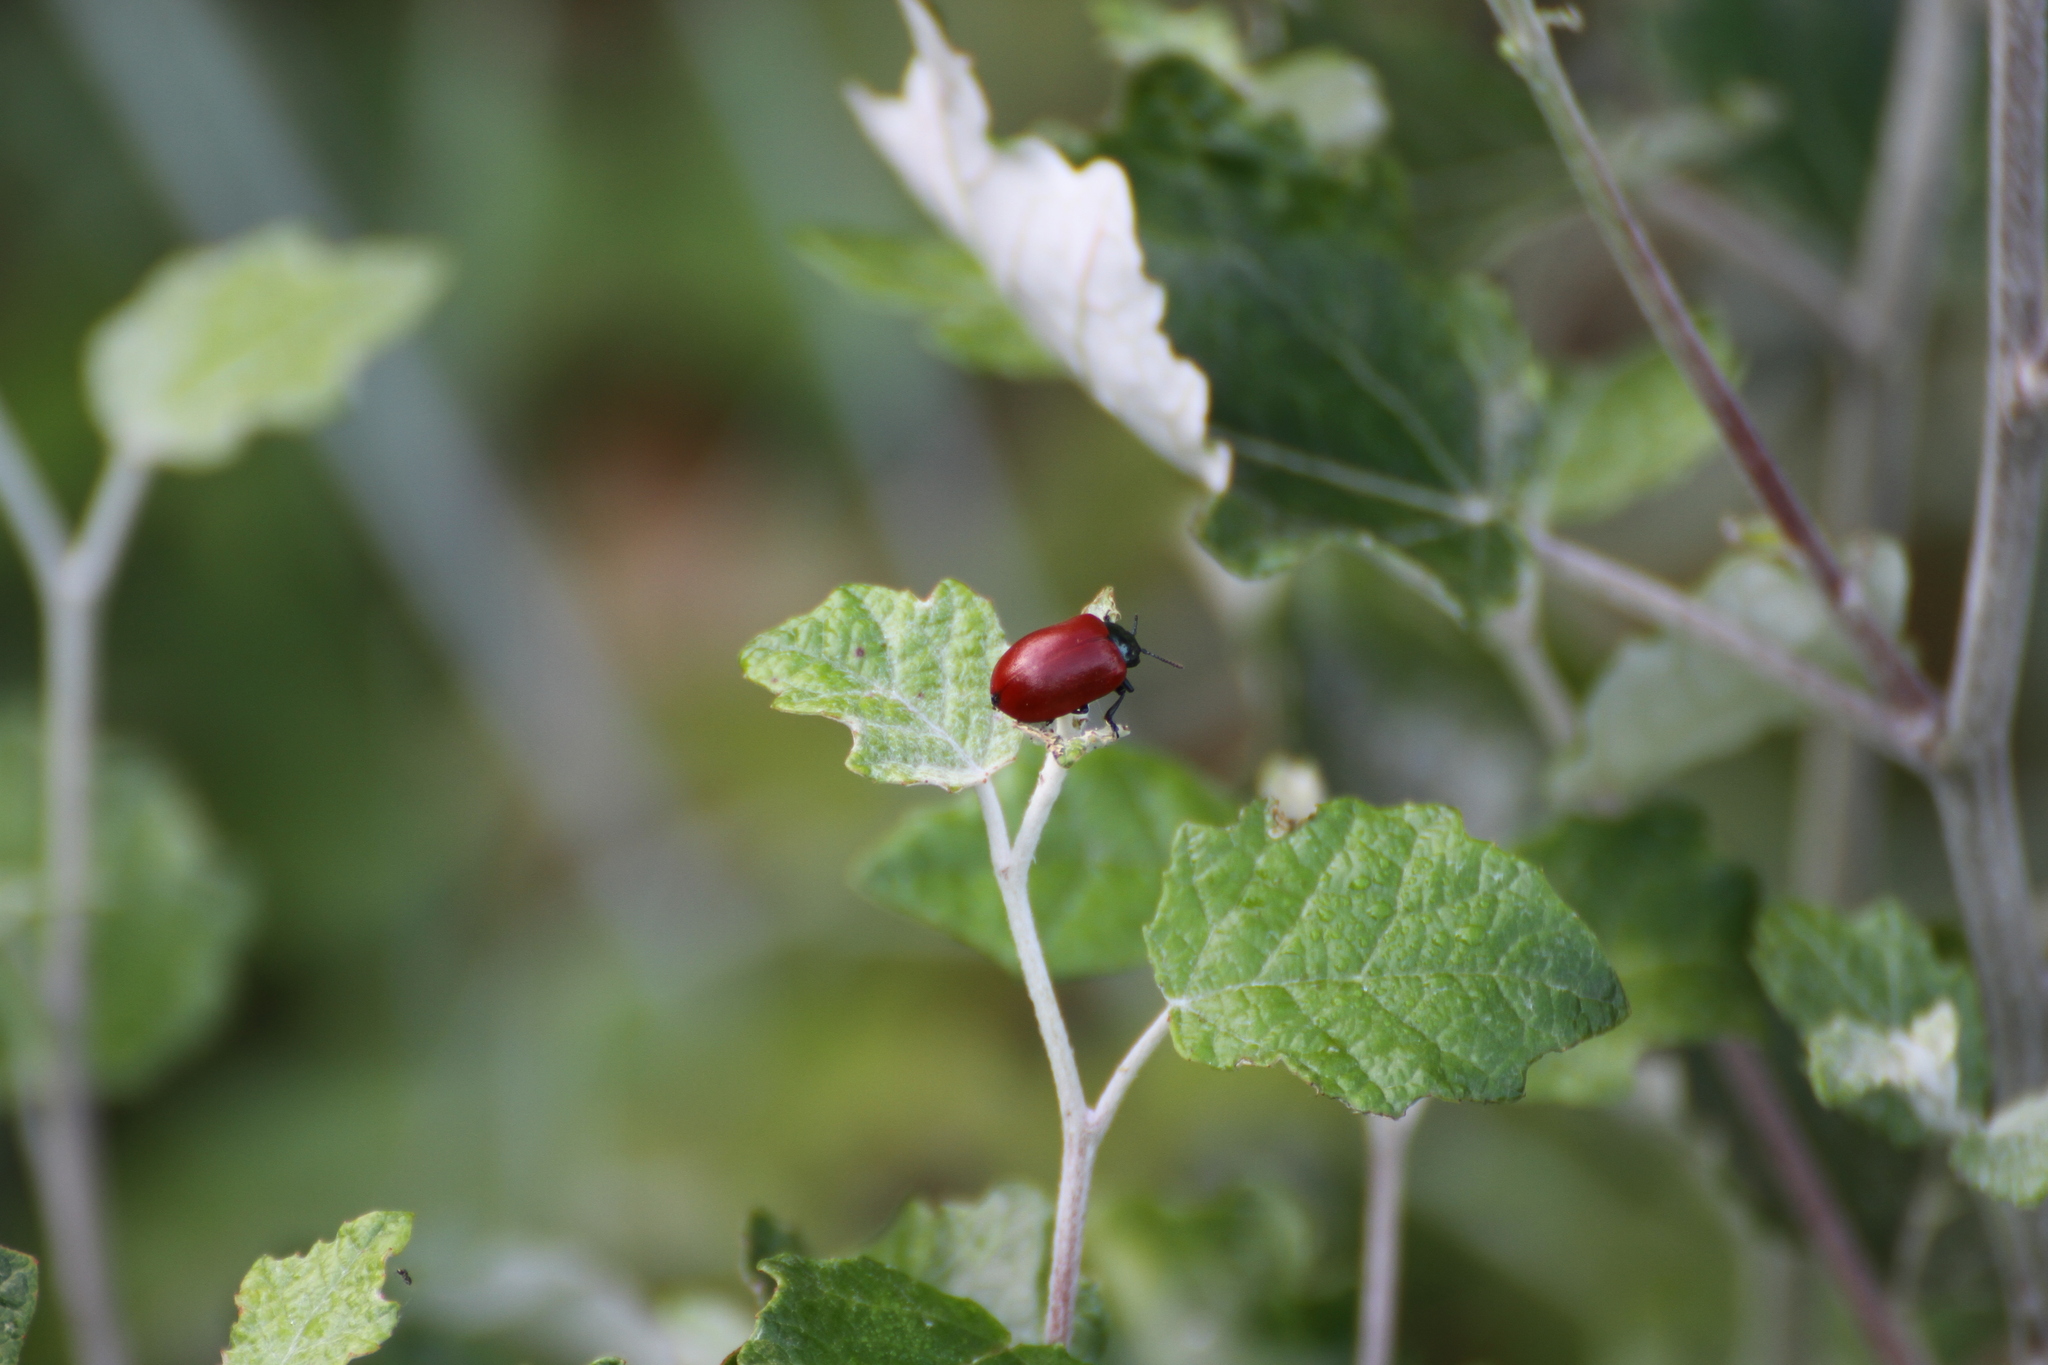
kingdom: Animalia
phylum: Arthropoda
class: Insecta
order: Coleoptera
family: Chrysomelidae
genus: Chrysomela
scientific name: Chrysomela populi
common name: Red poplar leaf beetle
